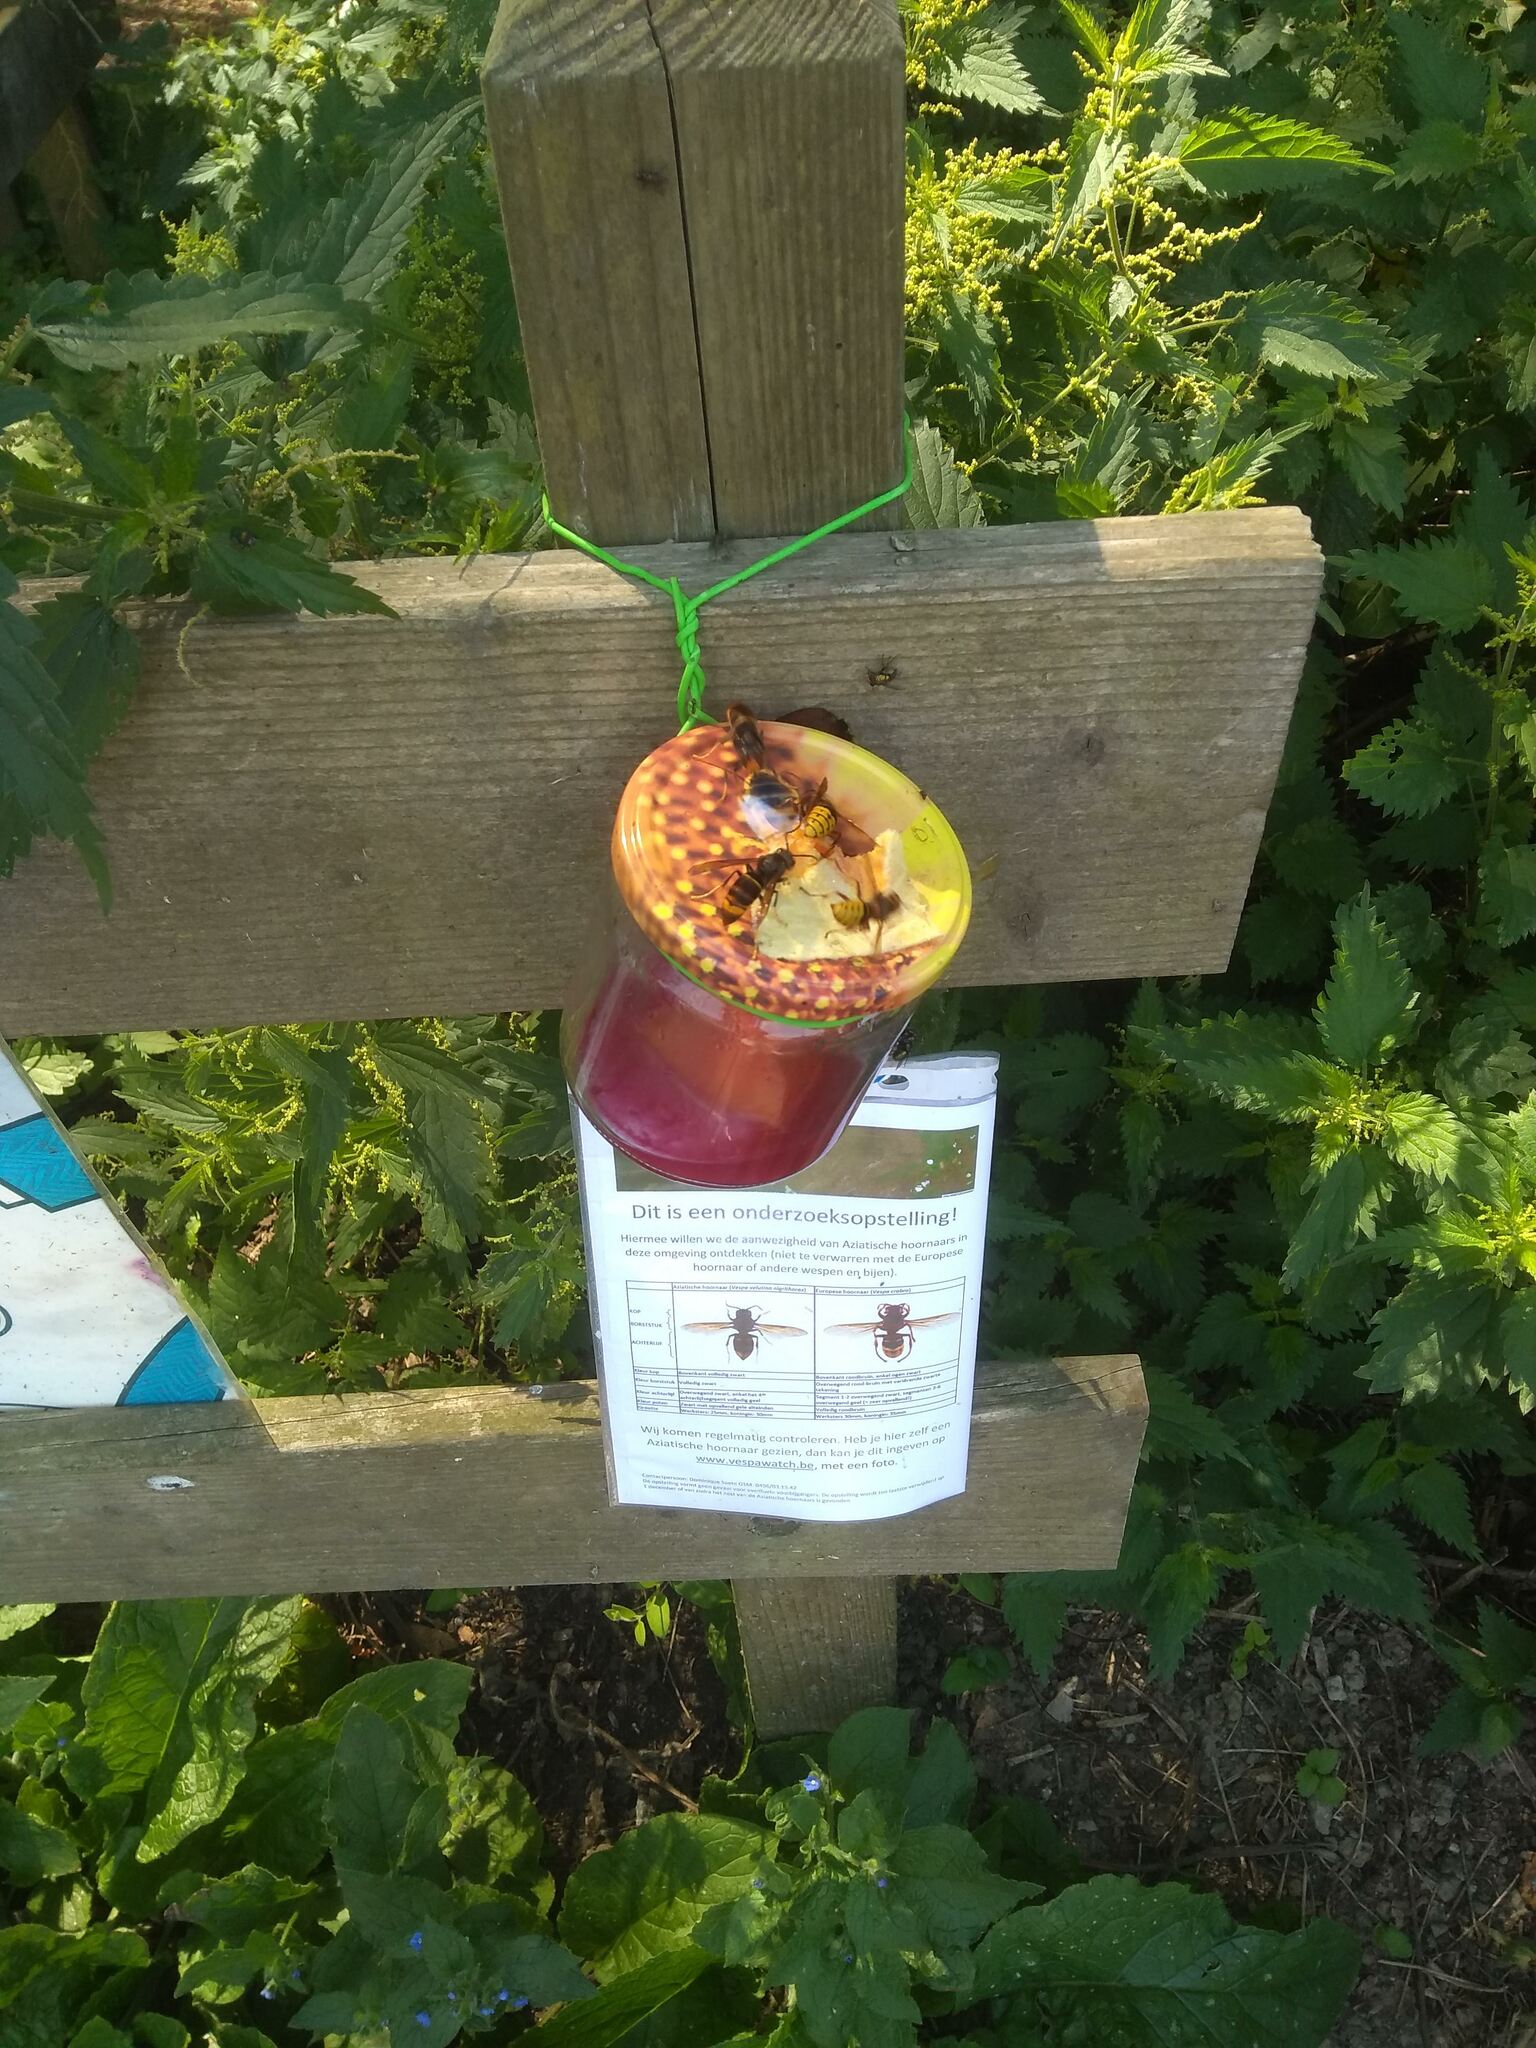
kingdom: Animalia
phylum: Arthropoda
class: Insecta
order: Hymenoptera
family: Vespidae
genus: Vespa
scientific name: Vespa velutina
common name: Asian hornet
